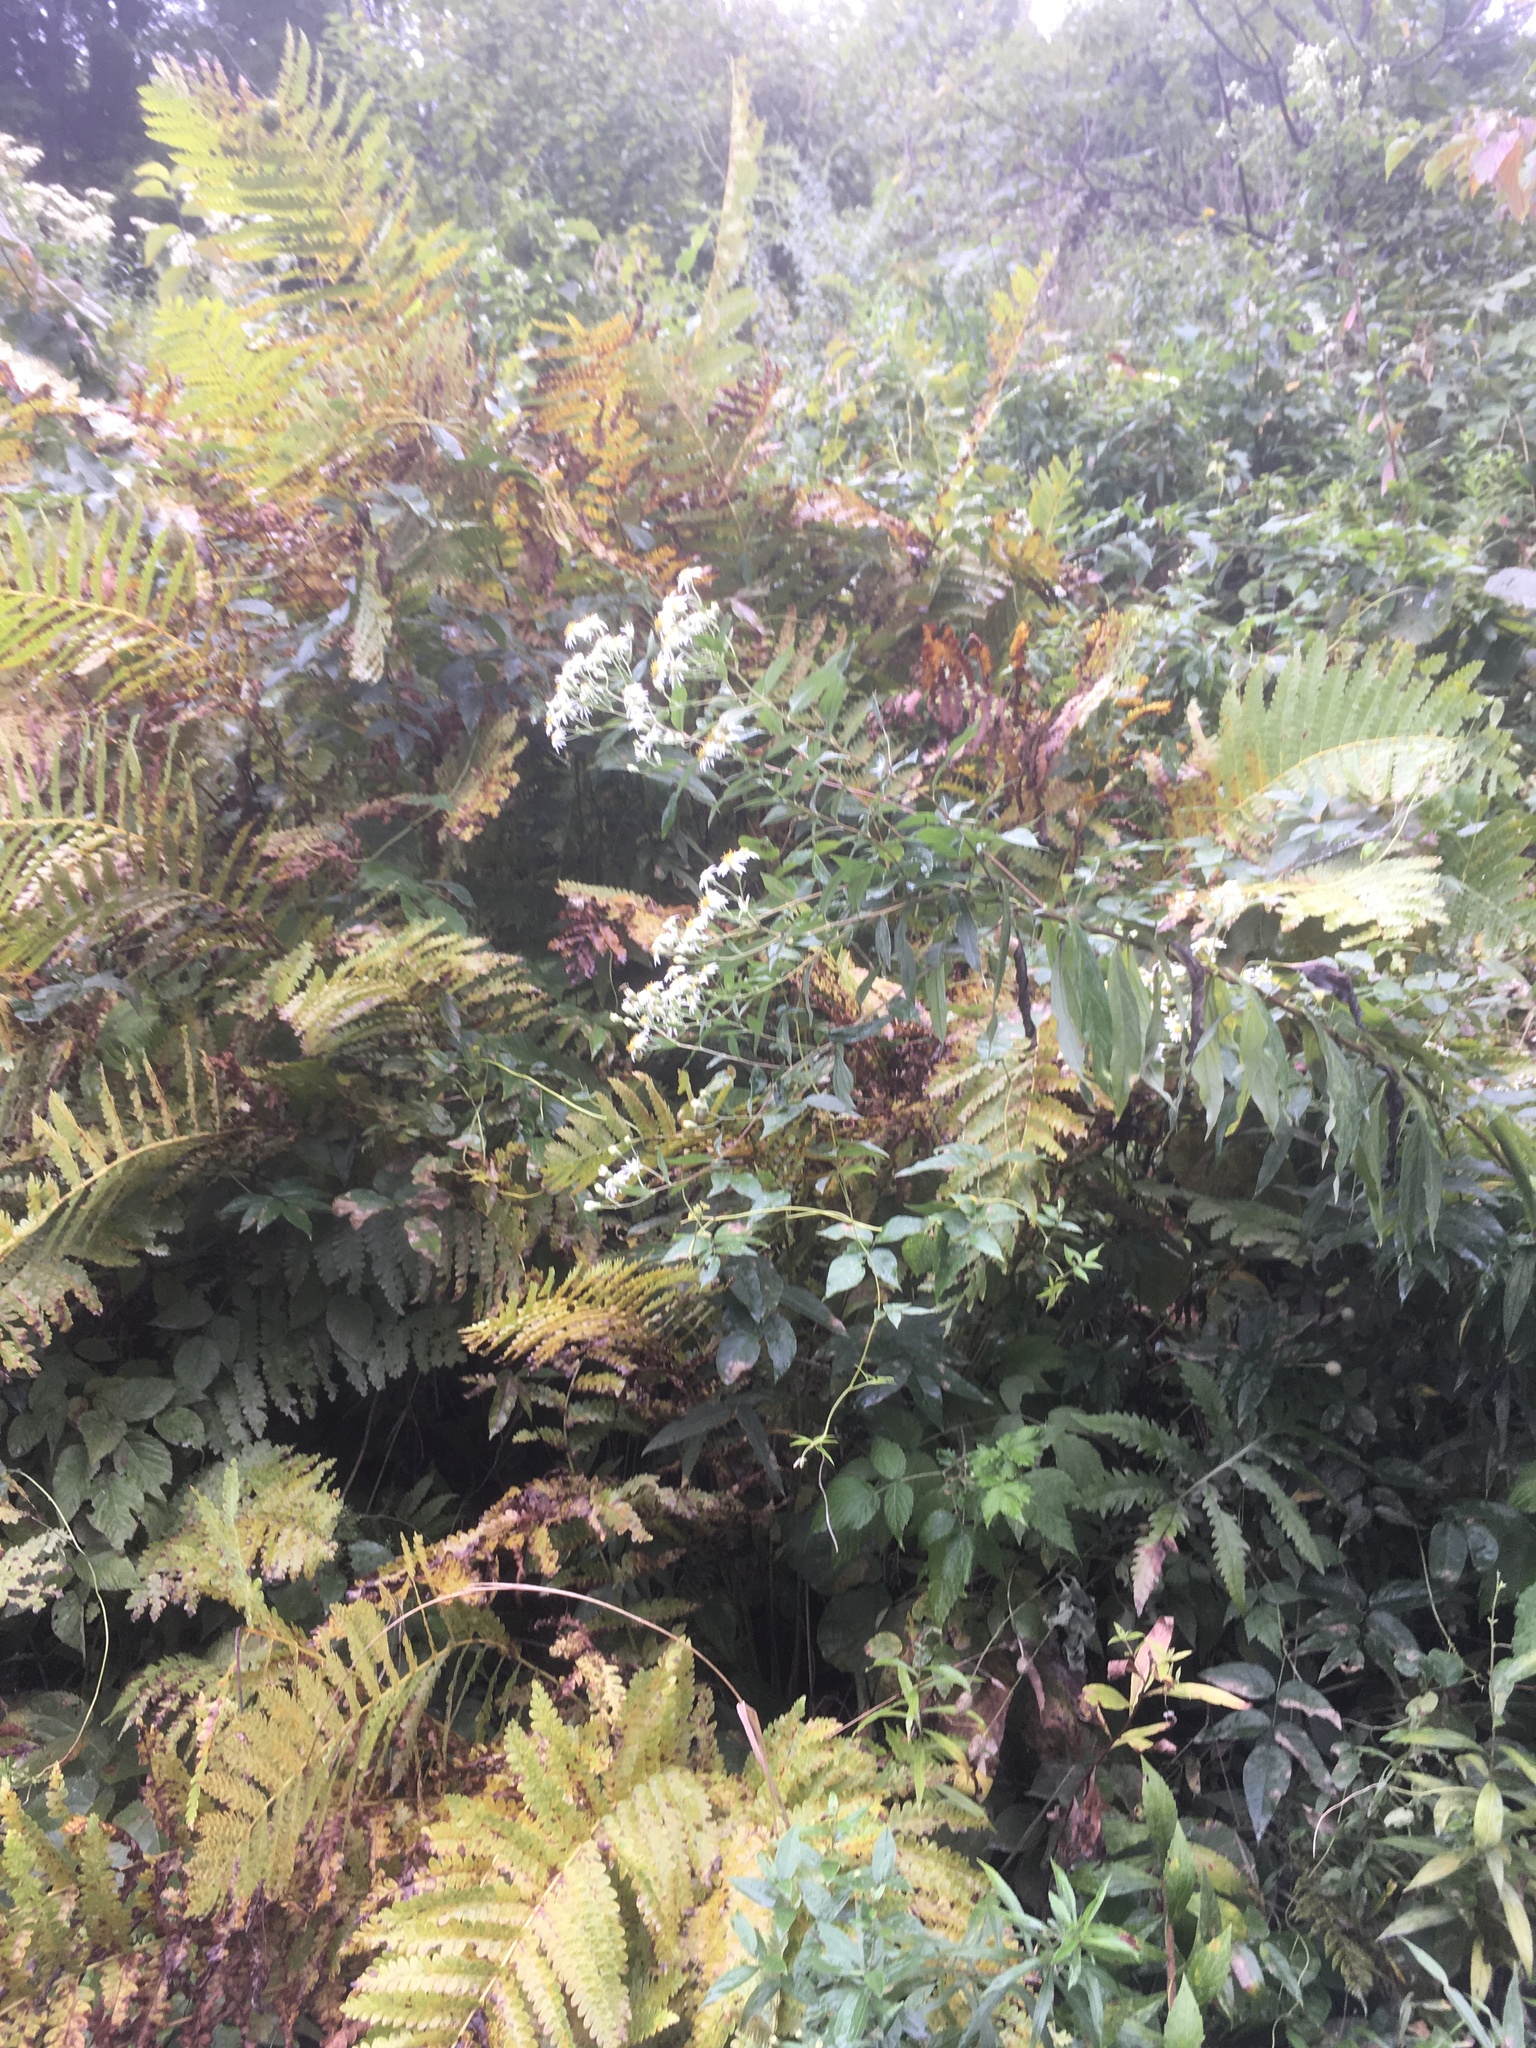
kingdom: Plantae
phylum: Tracheophyta
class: Magnoliopsida
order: Asterales
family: Asteraceae
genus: Doellingeria
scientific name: Doellingeria umbellata
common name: Flat-top white aster
